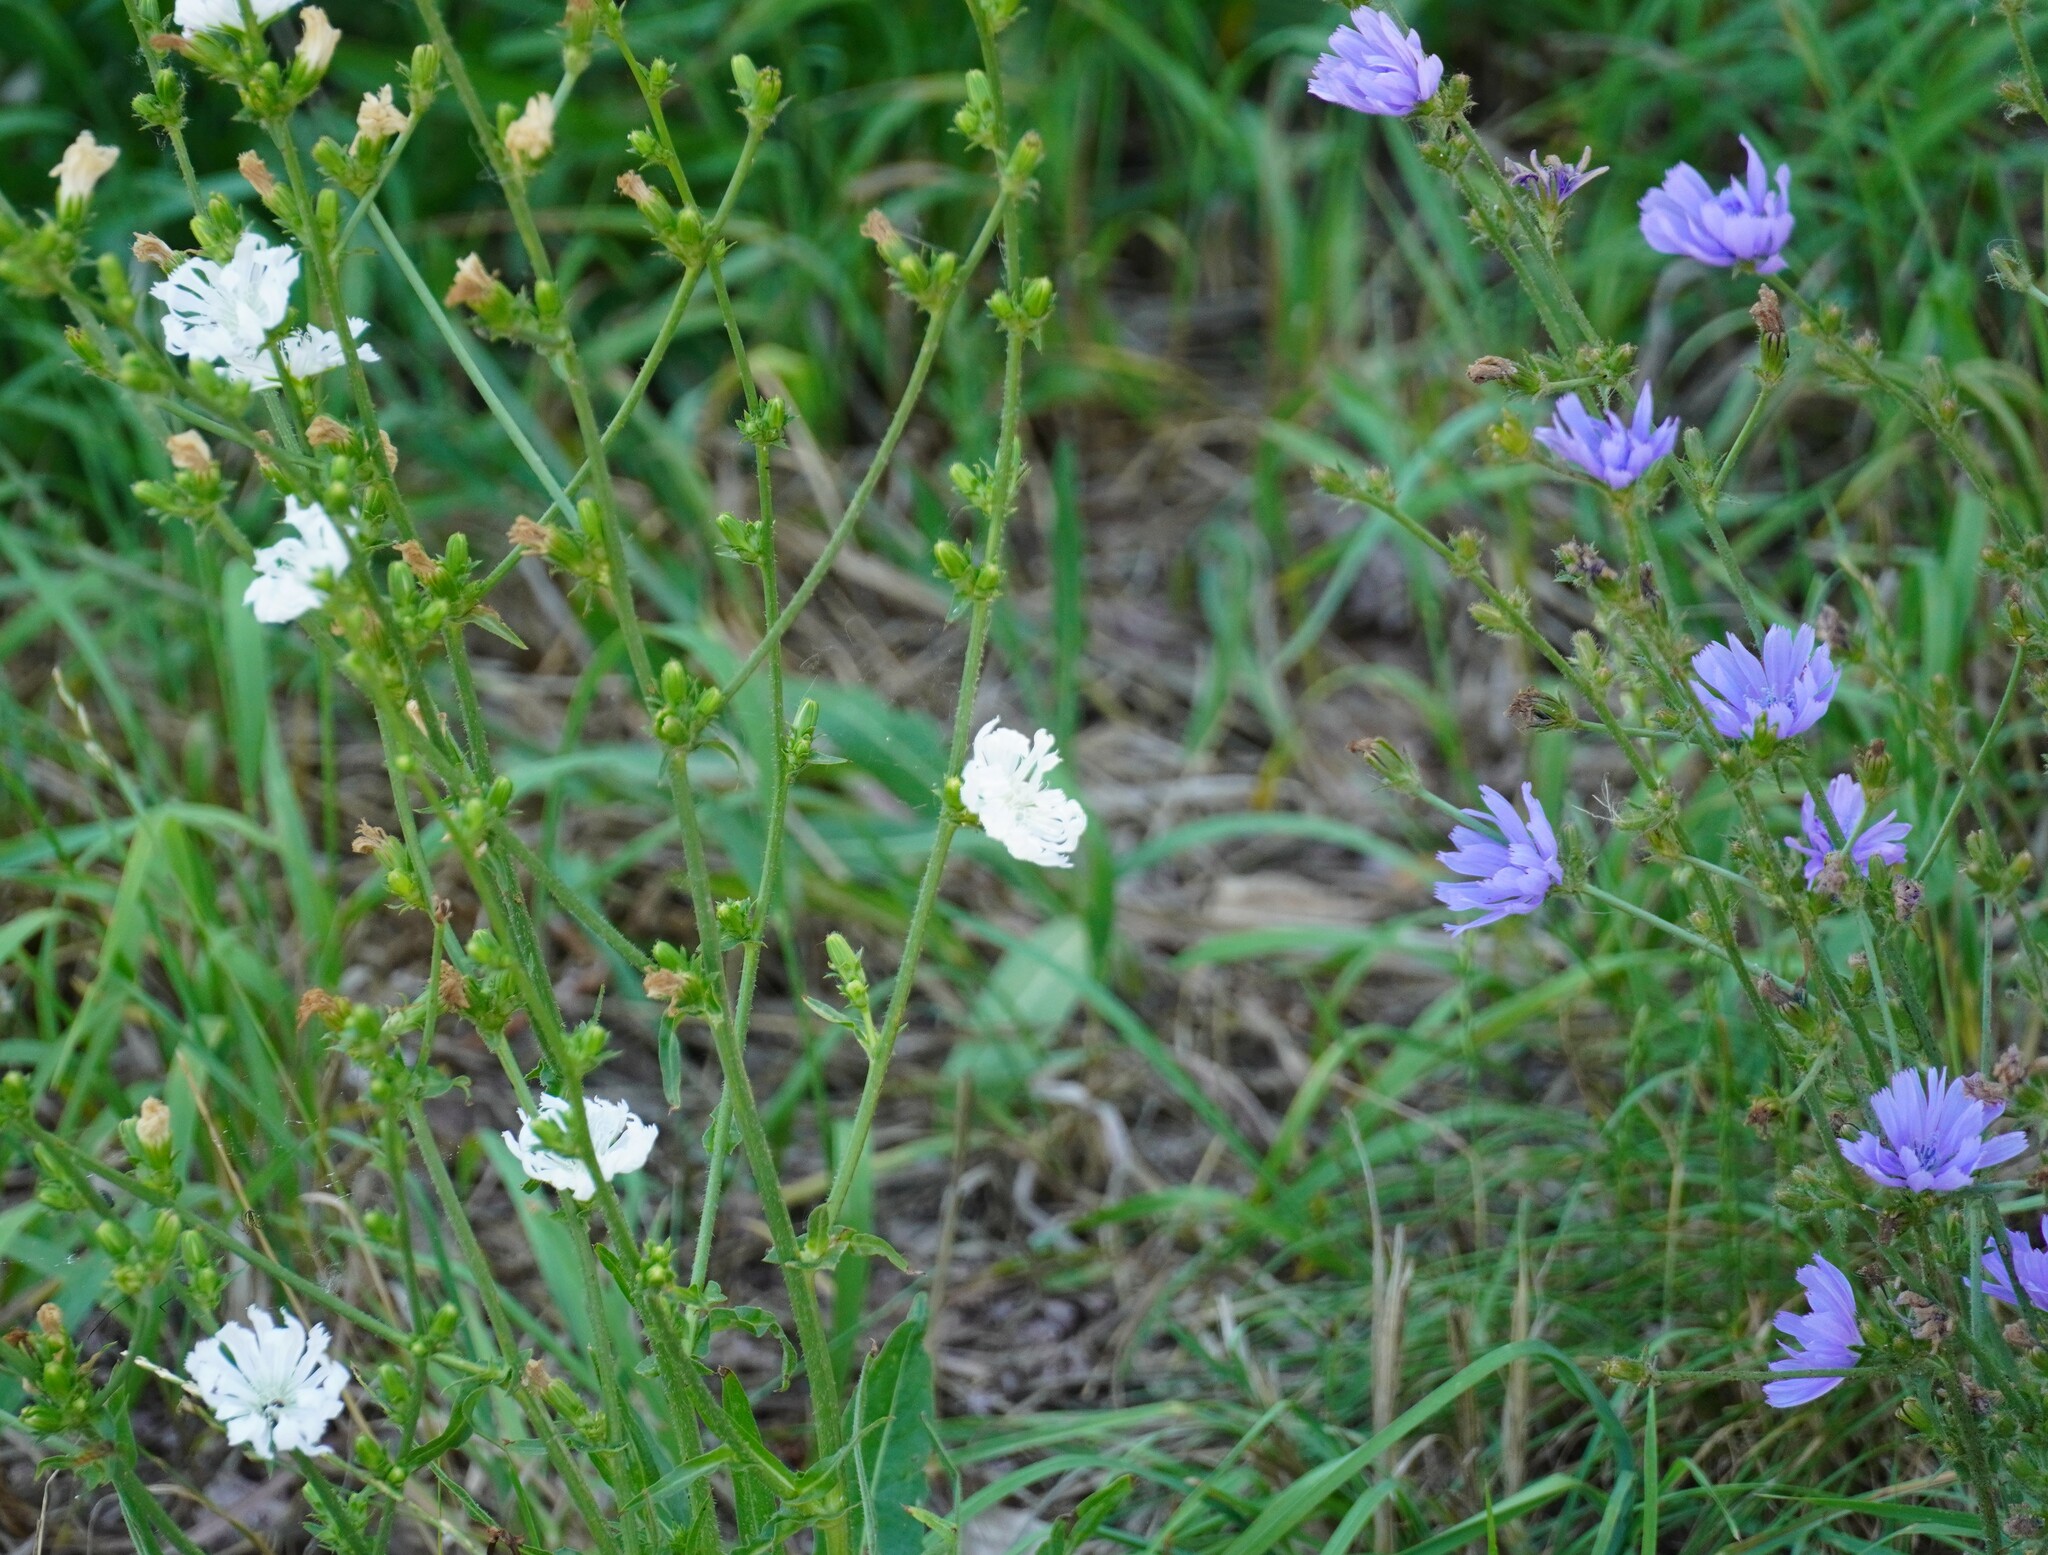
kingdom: Plantae
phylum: Tracheophyta
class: Magnoliopsida
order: Asterales
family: Asteraceae
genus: Cichorium
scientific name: Cichorium intybus
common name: Chicory
